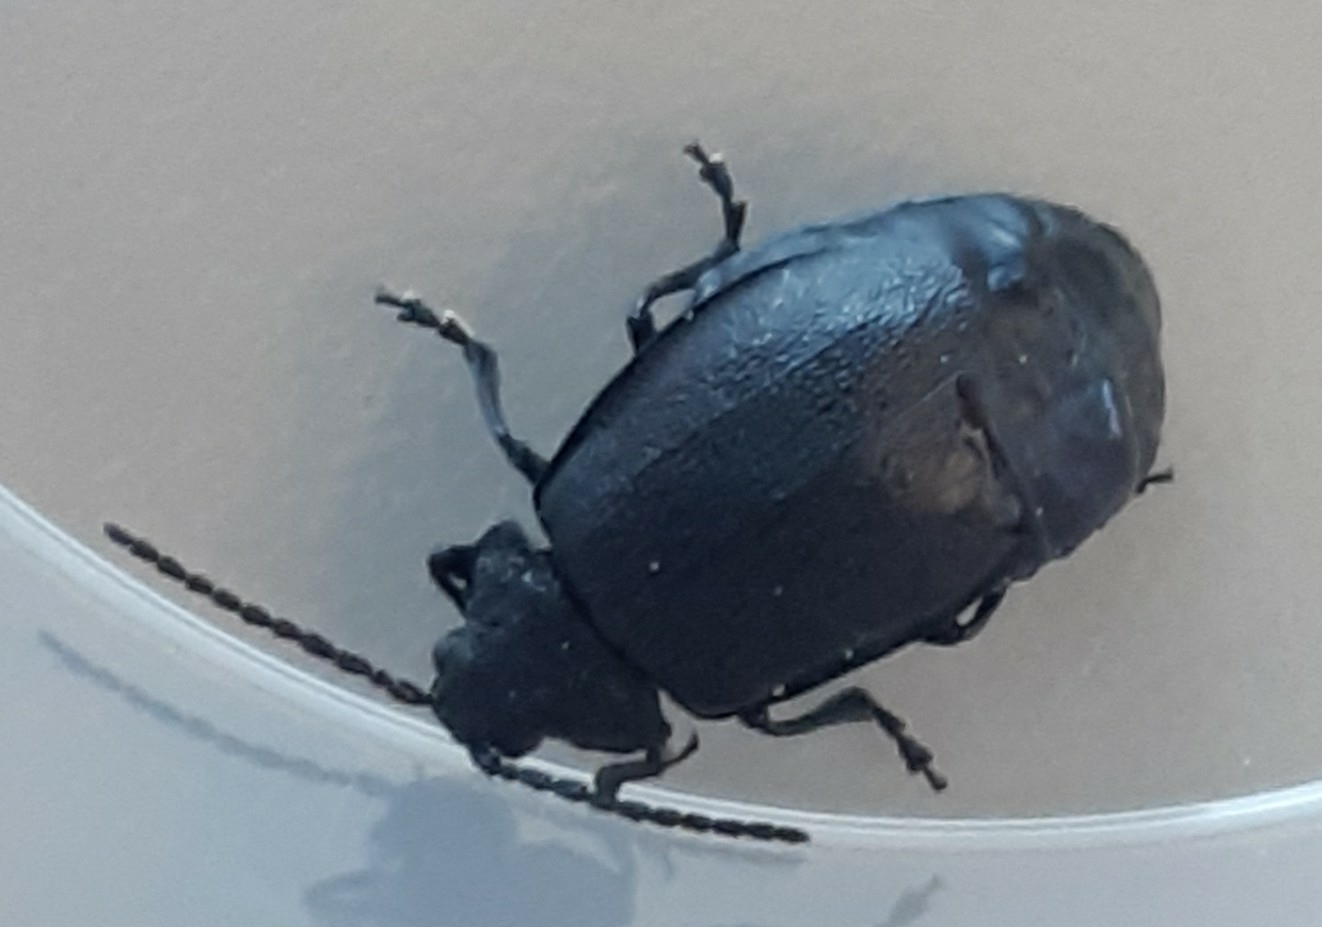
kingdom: Animalia
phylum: Arthropoda
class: Insecta
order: Coleoptera
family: Chrysomelidae
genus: Galeruca
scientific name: Galeruca tanaceti
